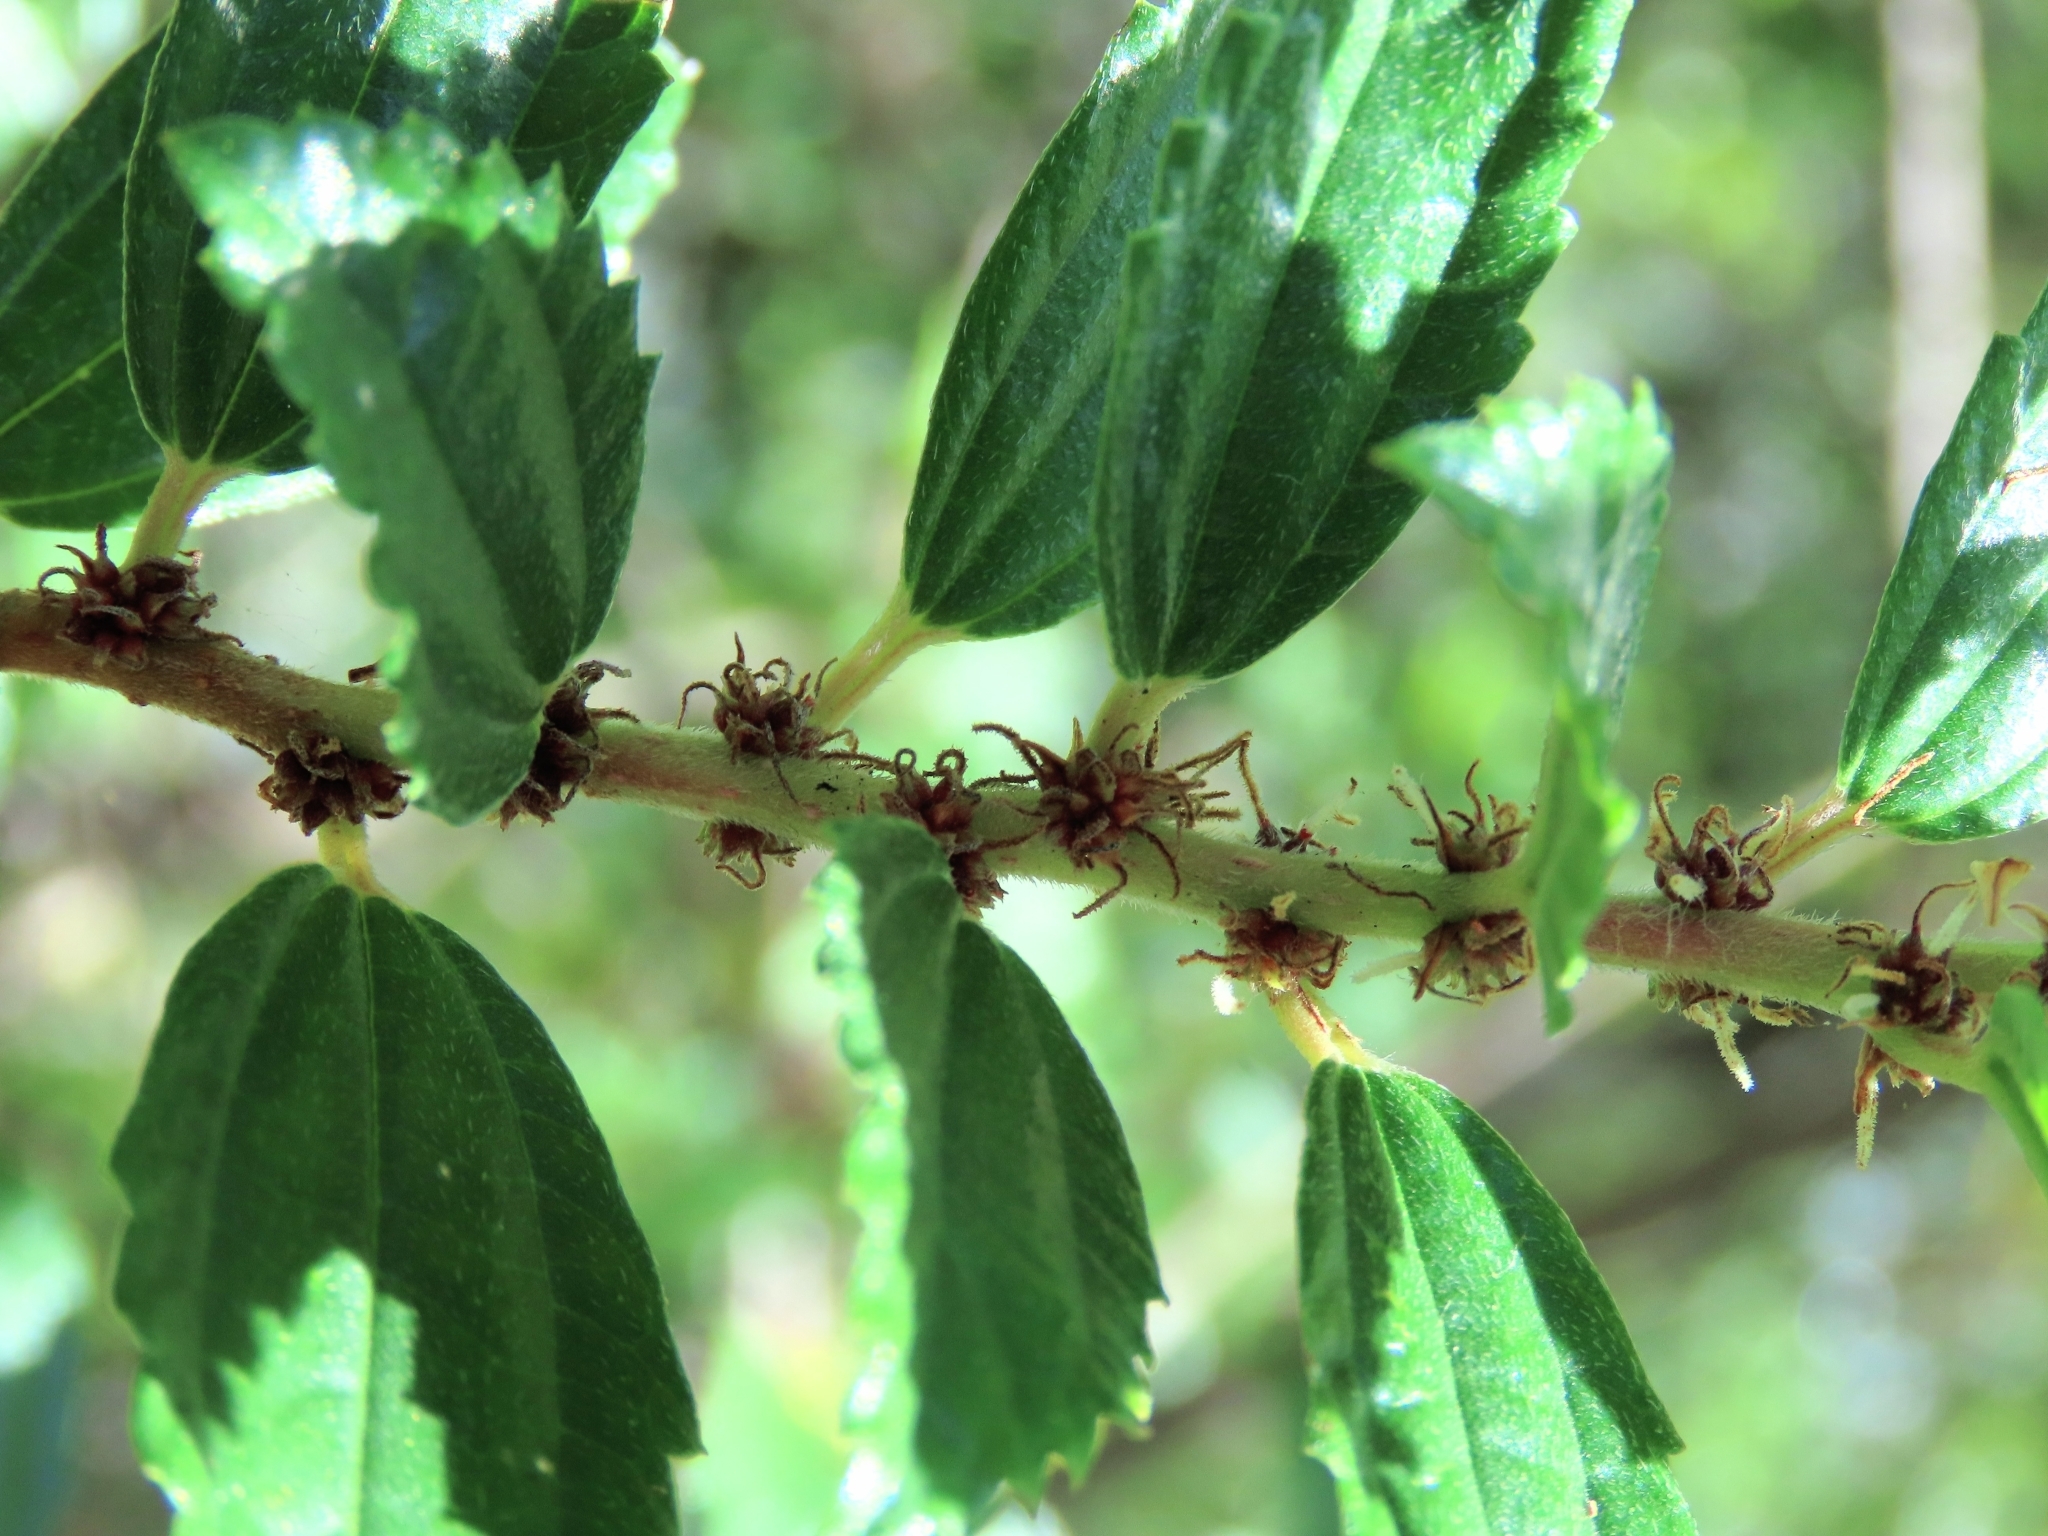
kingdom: Plantae
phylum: Tracheophyta
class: Magnoliopsida
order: Rosales
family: Urticaceae
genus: Pouzolzia
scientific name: Pouzolzia sanguinea
